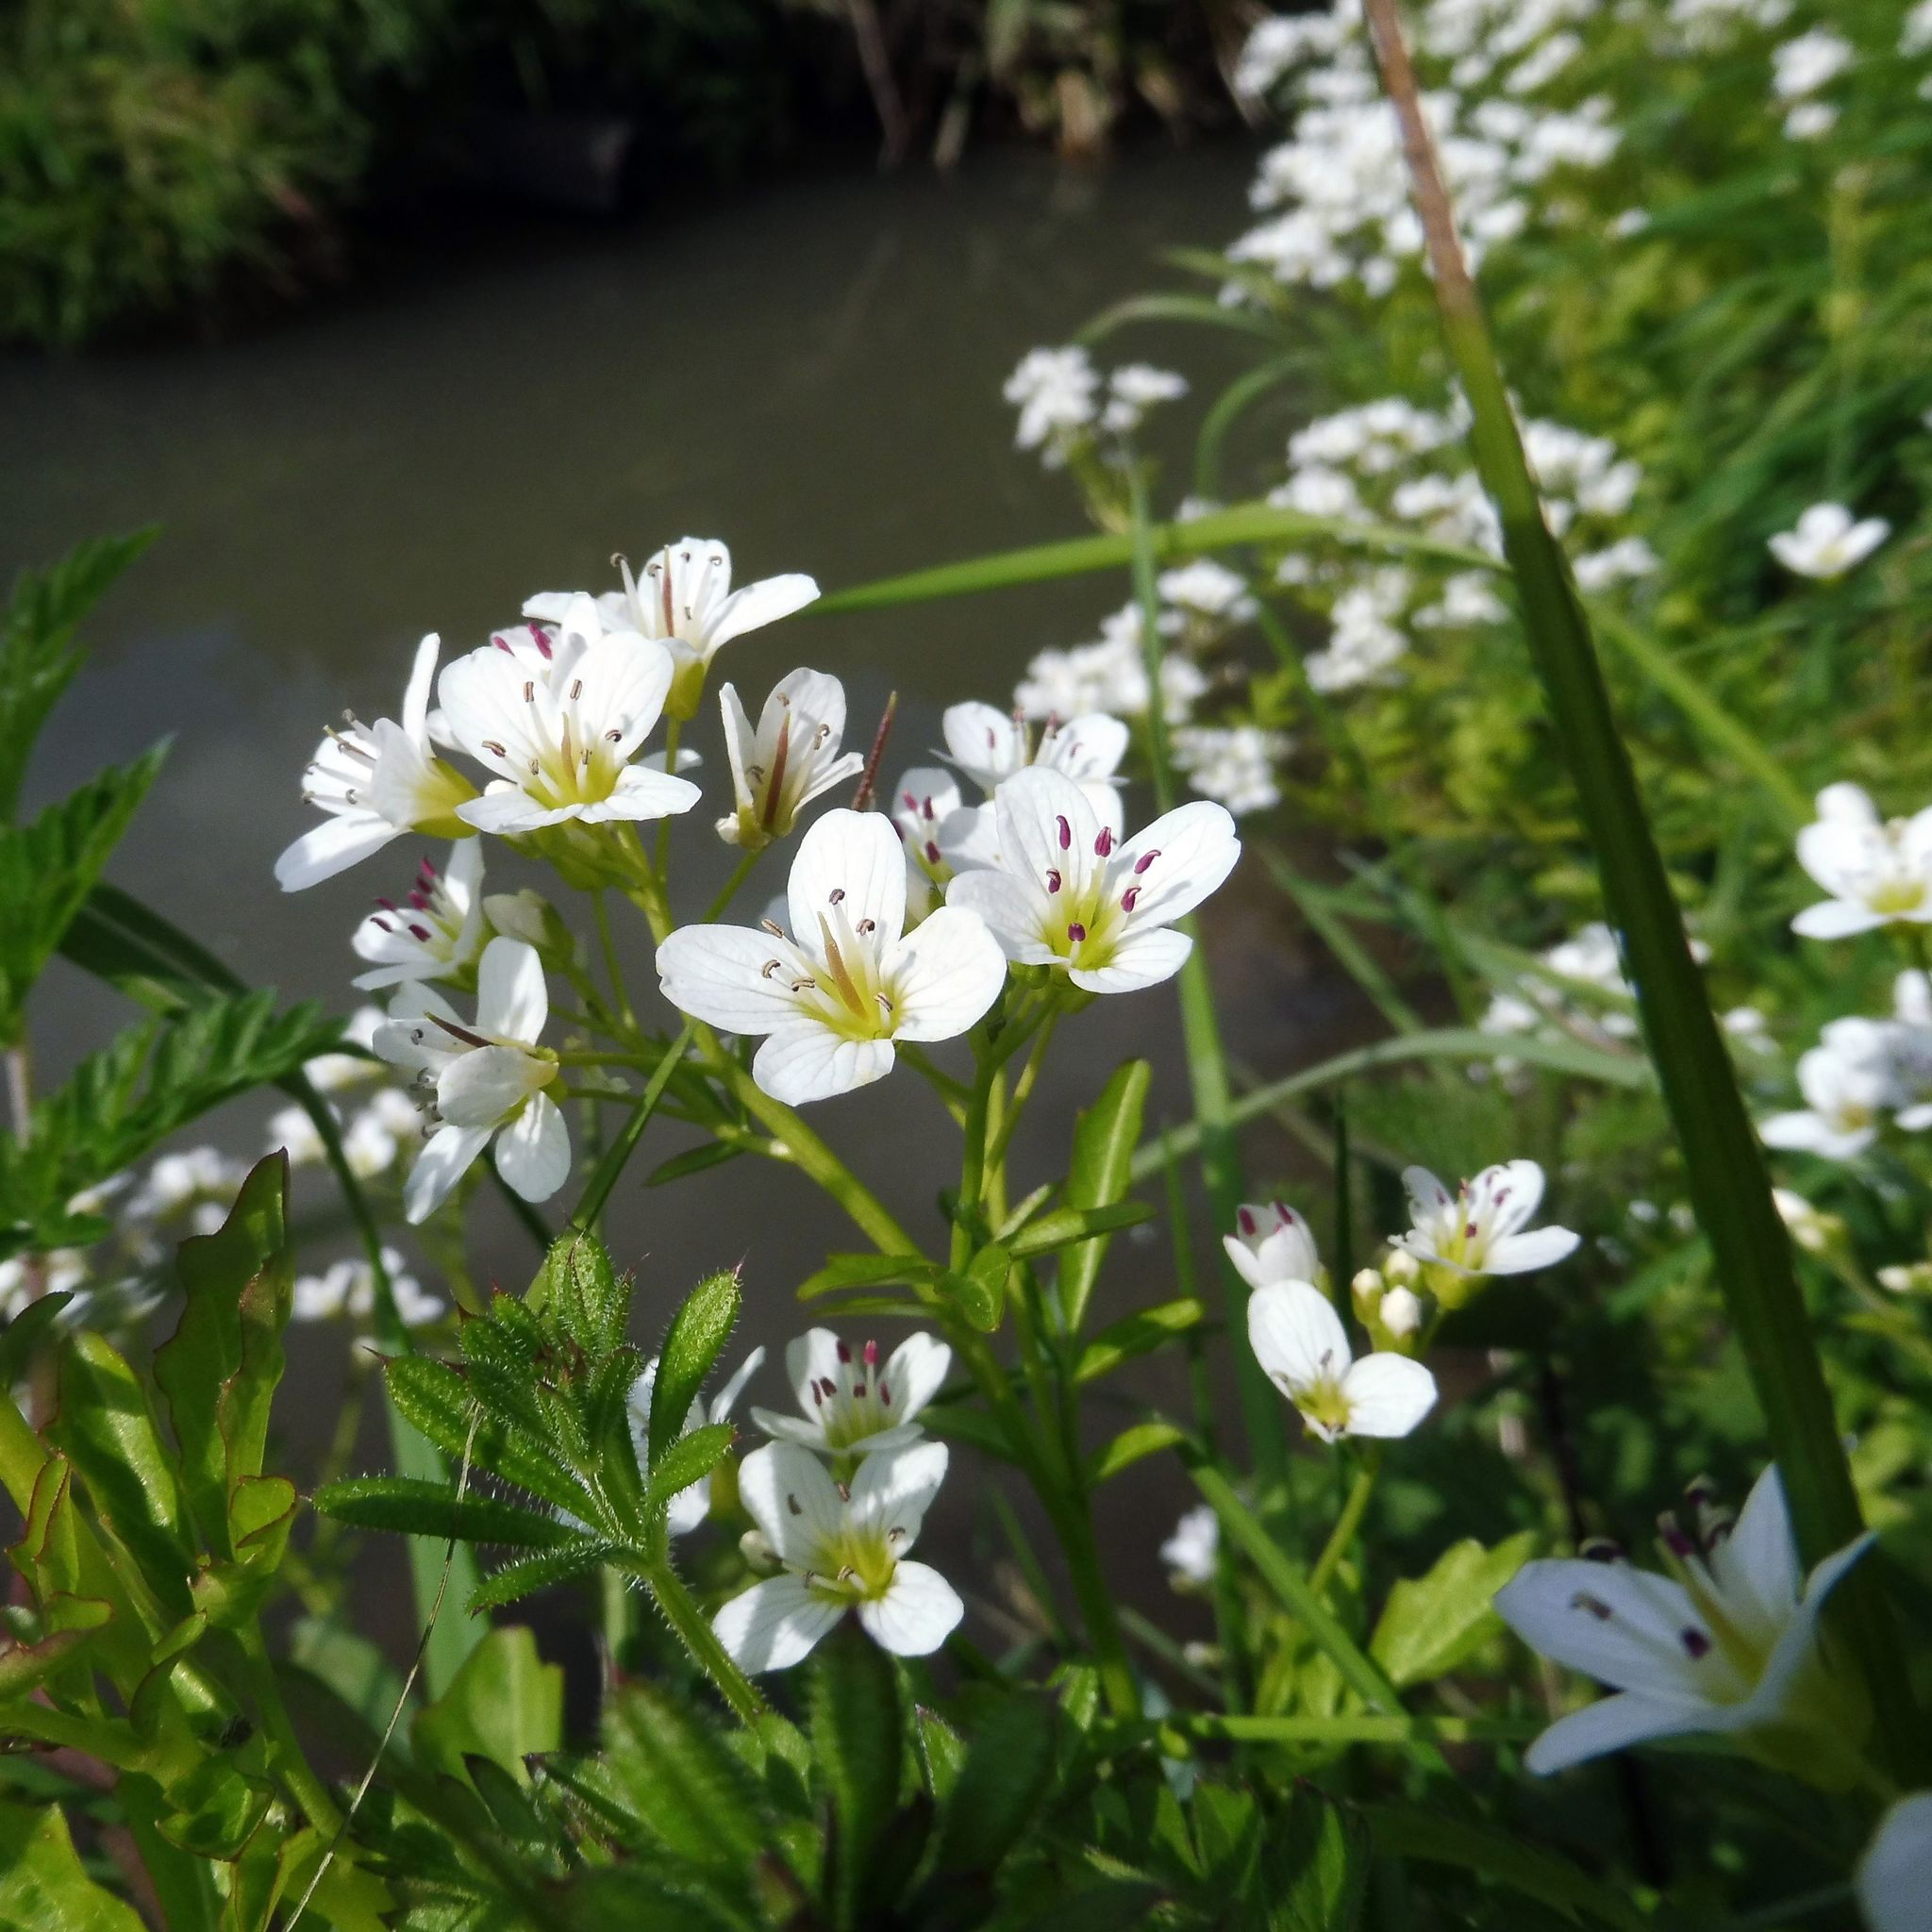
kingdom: Plantae
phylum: Tracheophyta
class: Magnoliopsida
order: Brassicales
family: Brassicaceae
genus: Cardamine
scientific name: Cardamine amara
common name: Large bitter-cress
